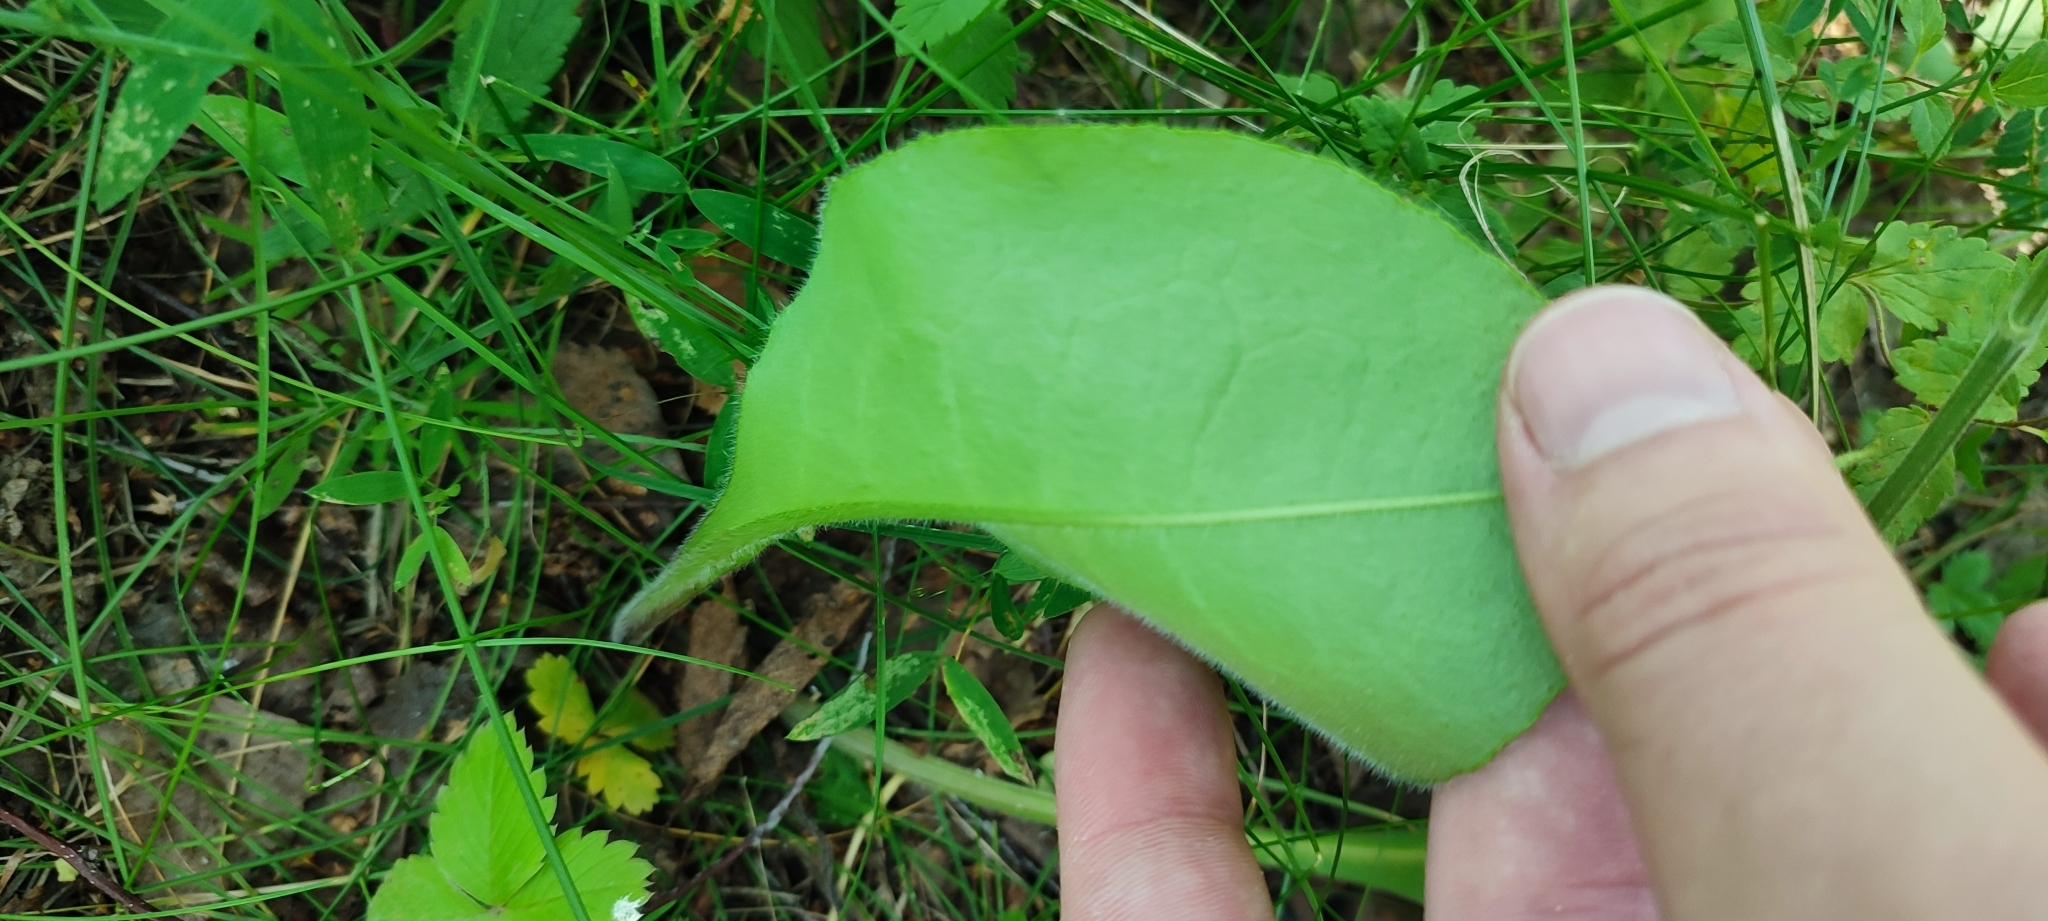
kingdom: Plantae
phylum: Tracheophyta
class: Magnoliopsida
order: Boraginales
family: Boraginaceae
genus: Pulmonaria
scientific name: Pulmonaria mollis
